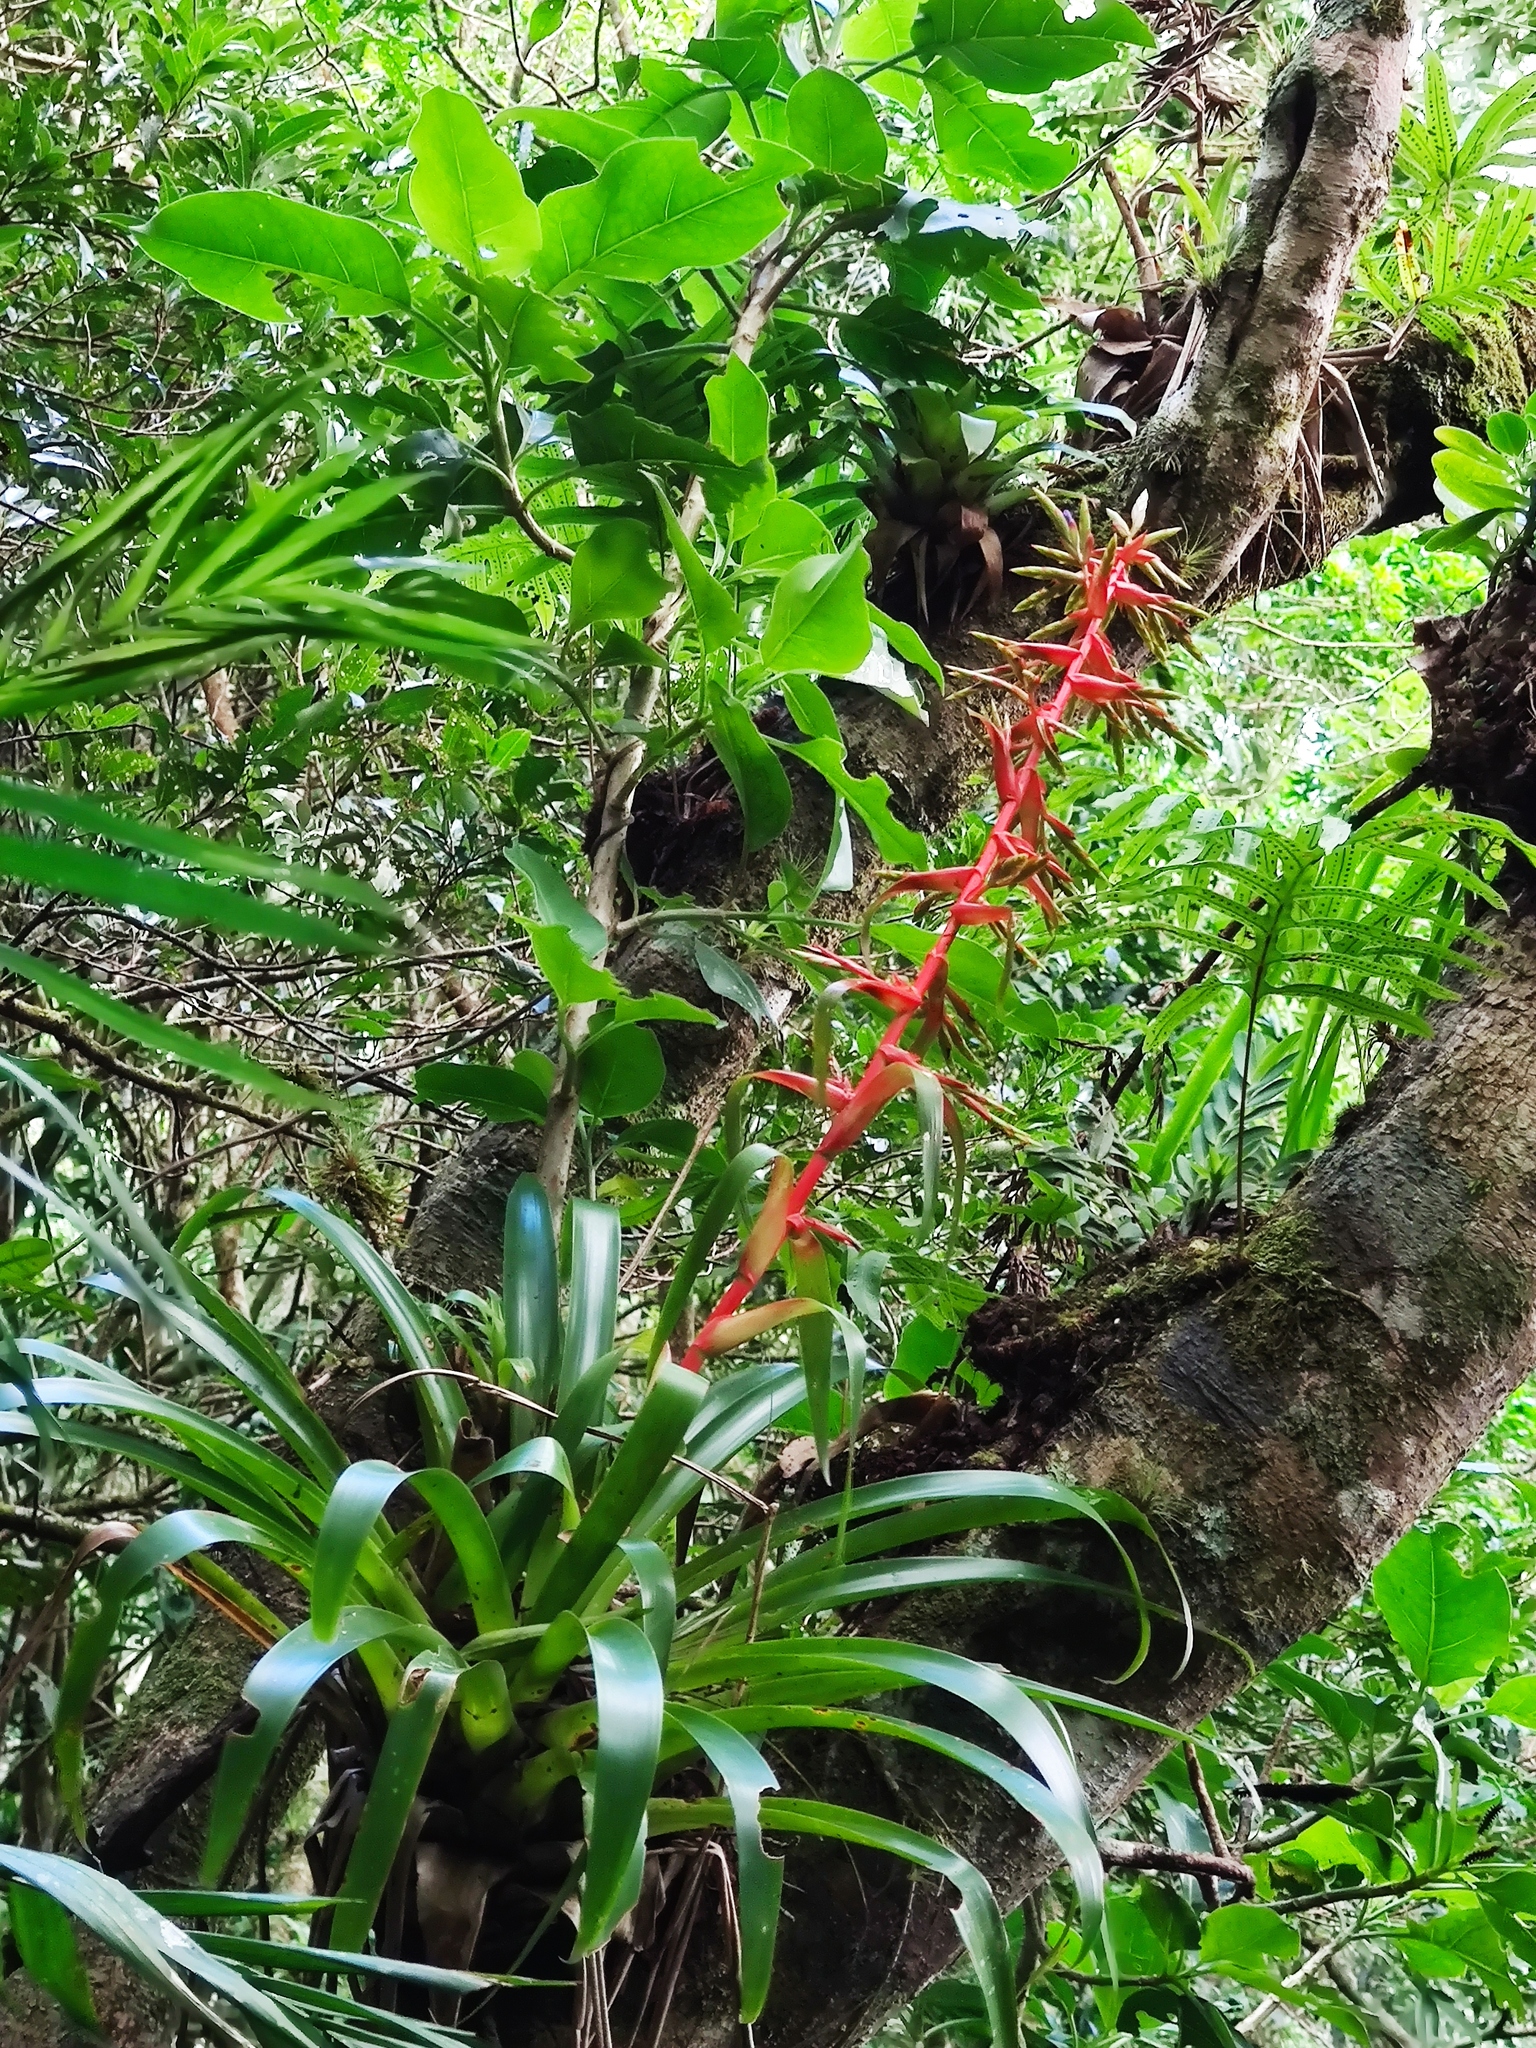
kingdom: Plantae
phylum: Tracheophyta
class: Liliopsida
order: Poales
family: Bromeliaceae
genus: Tillandsia
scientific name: Tillandsia guatemalensis
